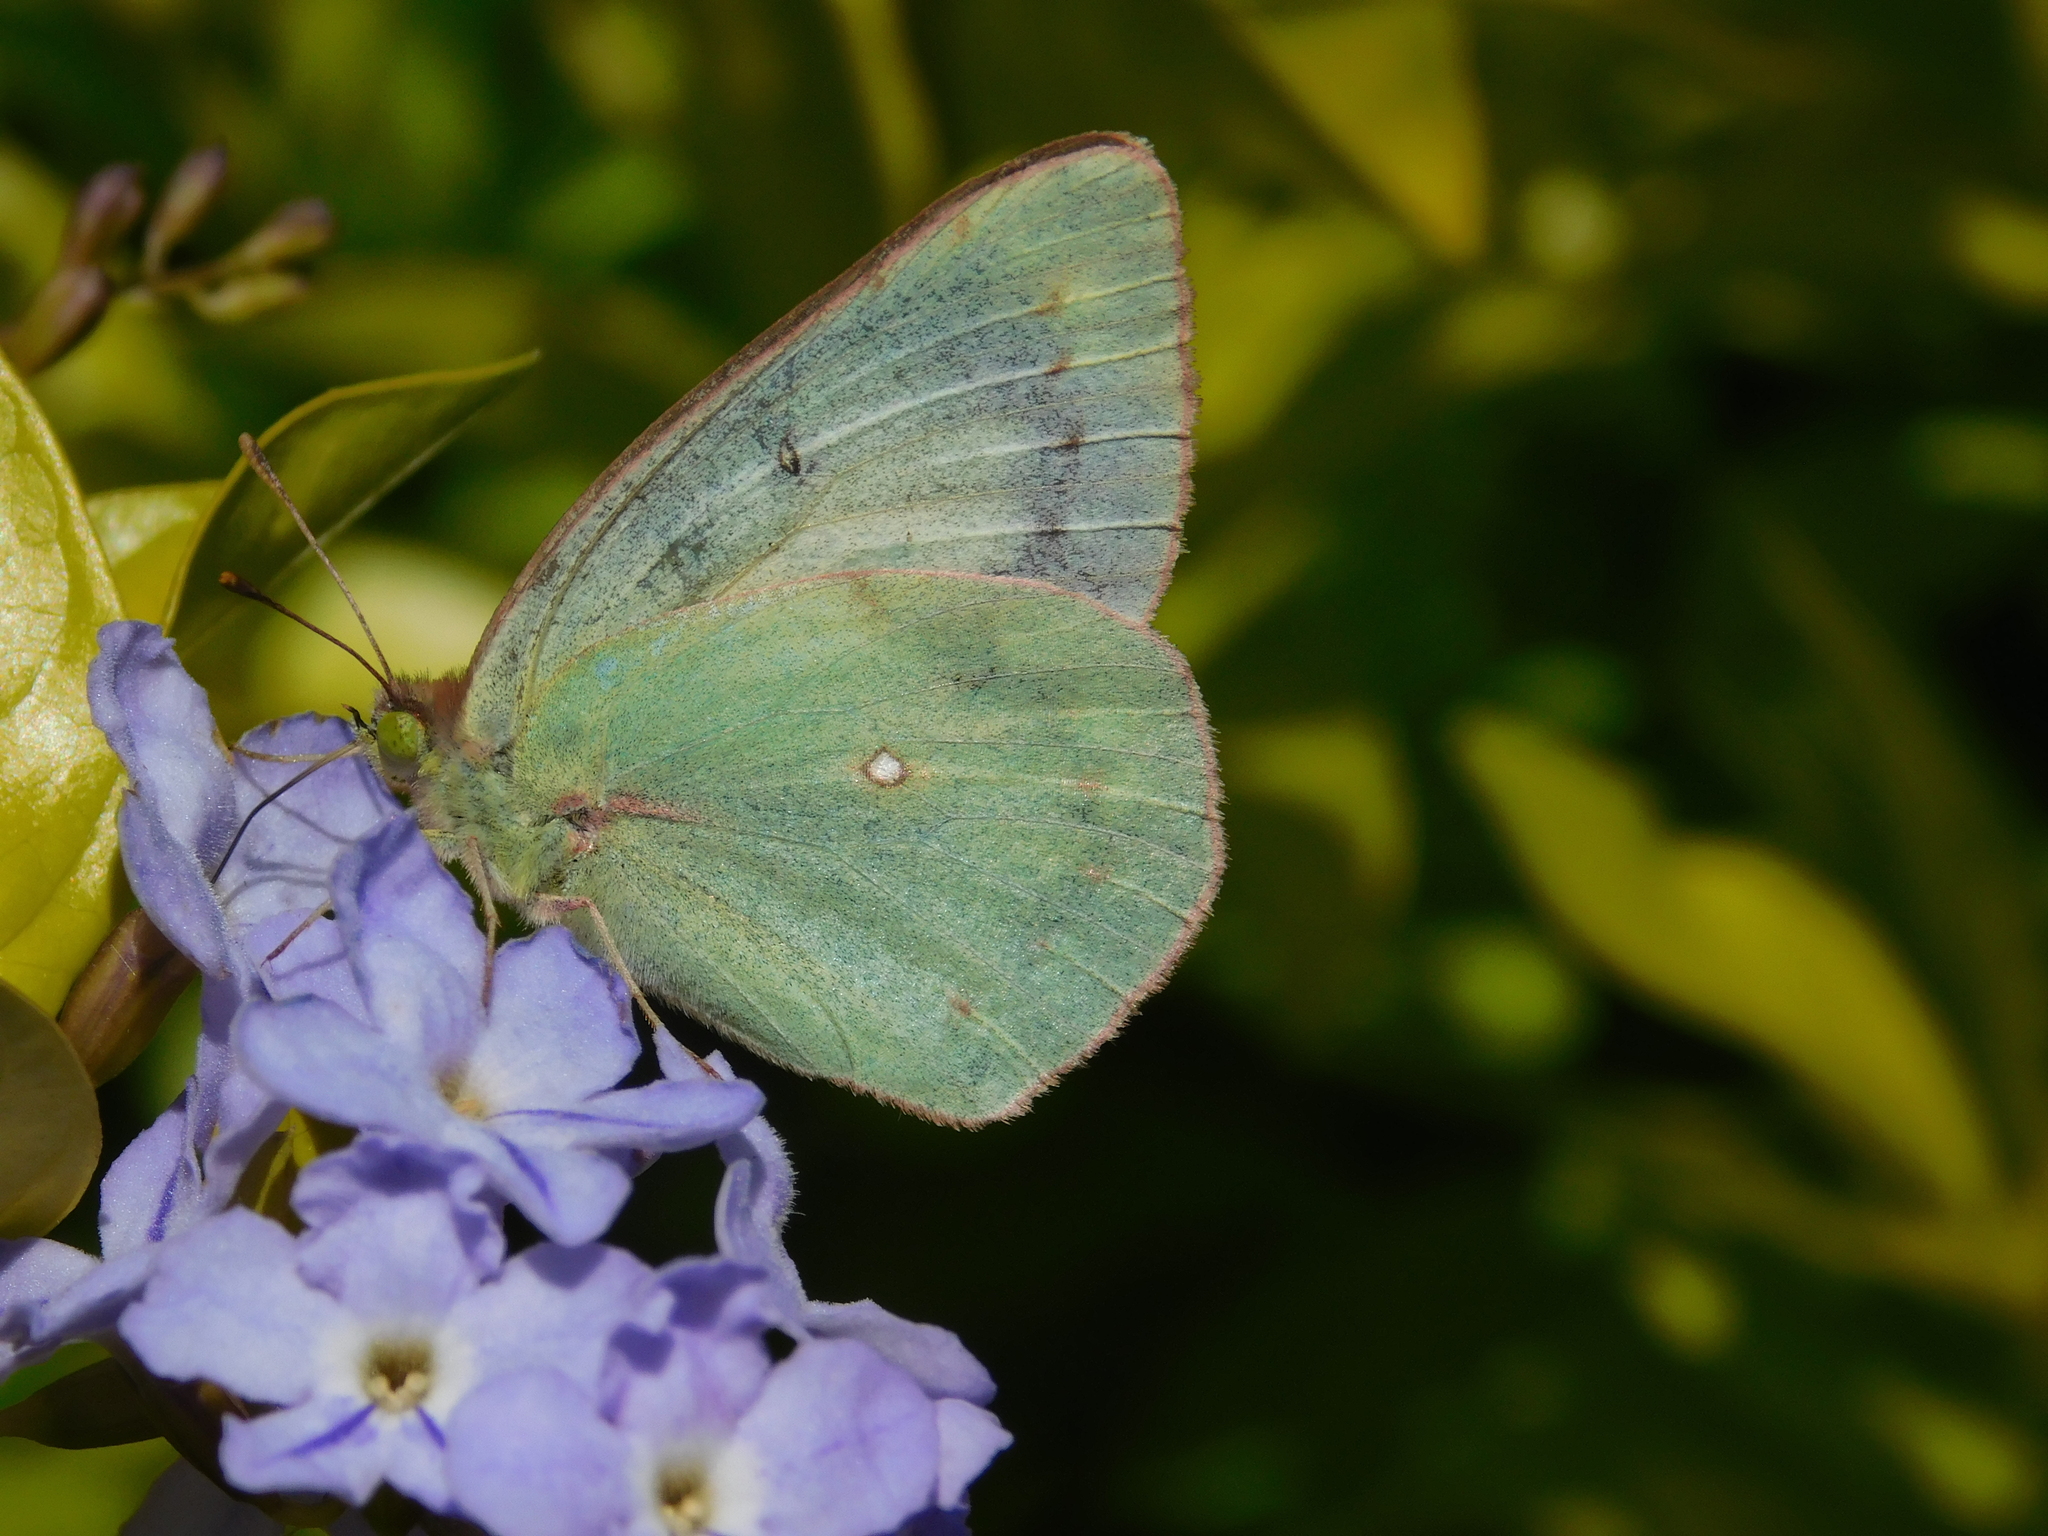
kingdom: Animalia
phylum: Arthropoda
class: Insecta
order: Lepidoptera
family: Pieridae
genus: Colias
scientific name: Colias lesbia
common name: Lesbia clouded yellow
